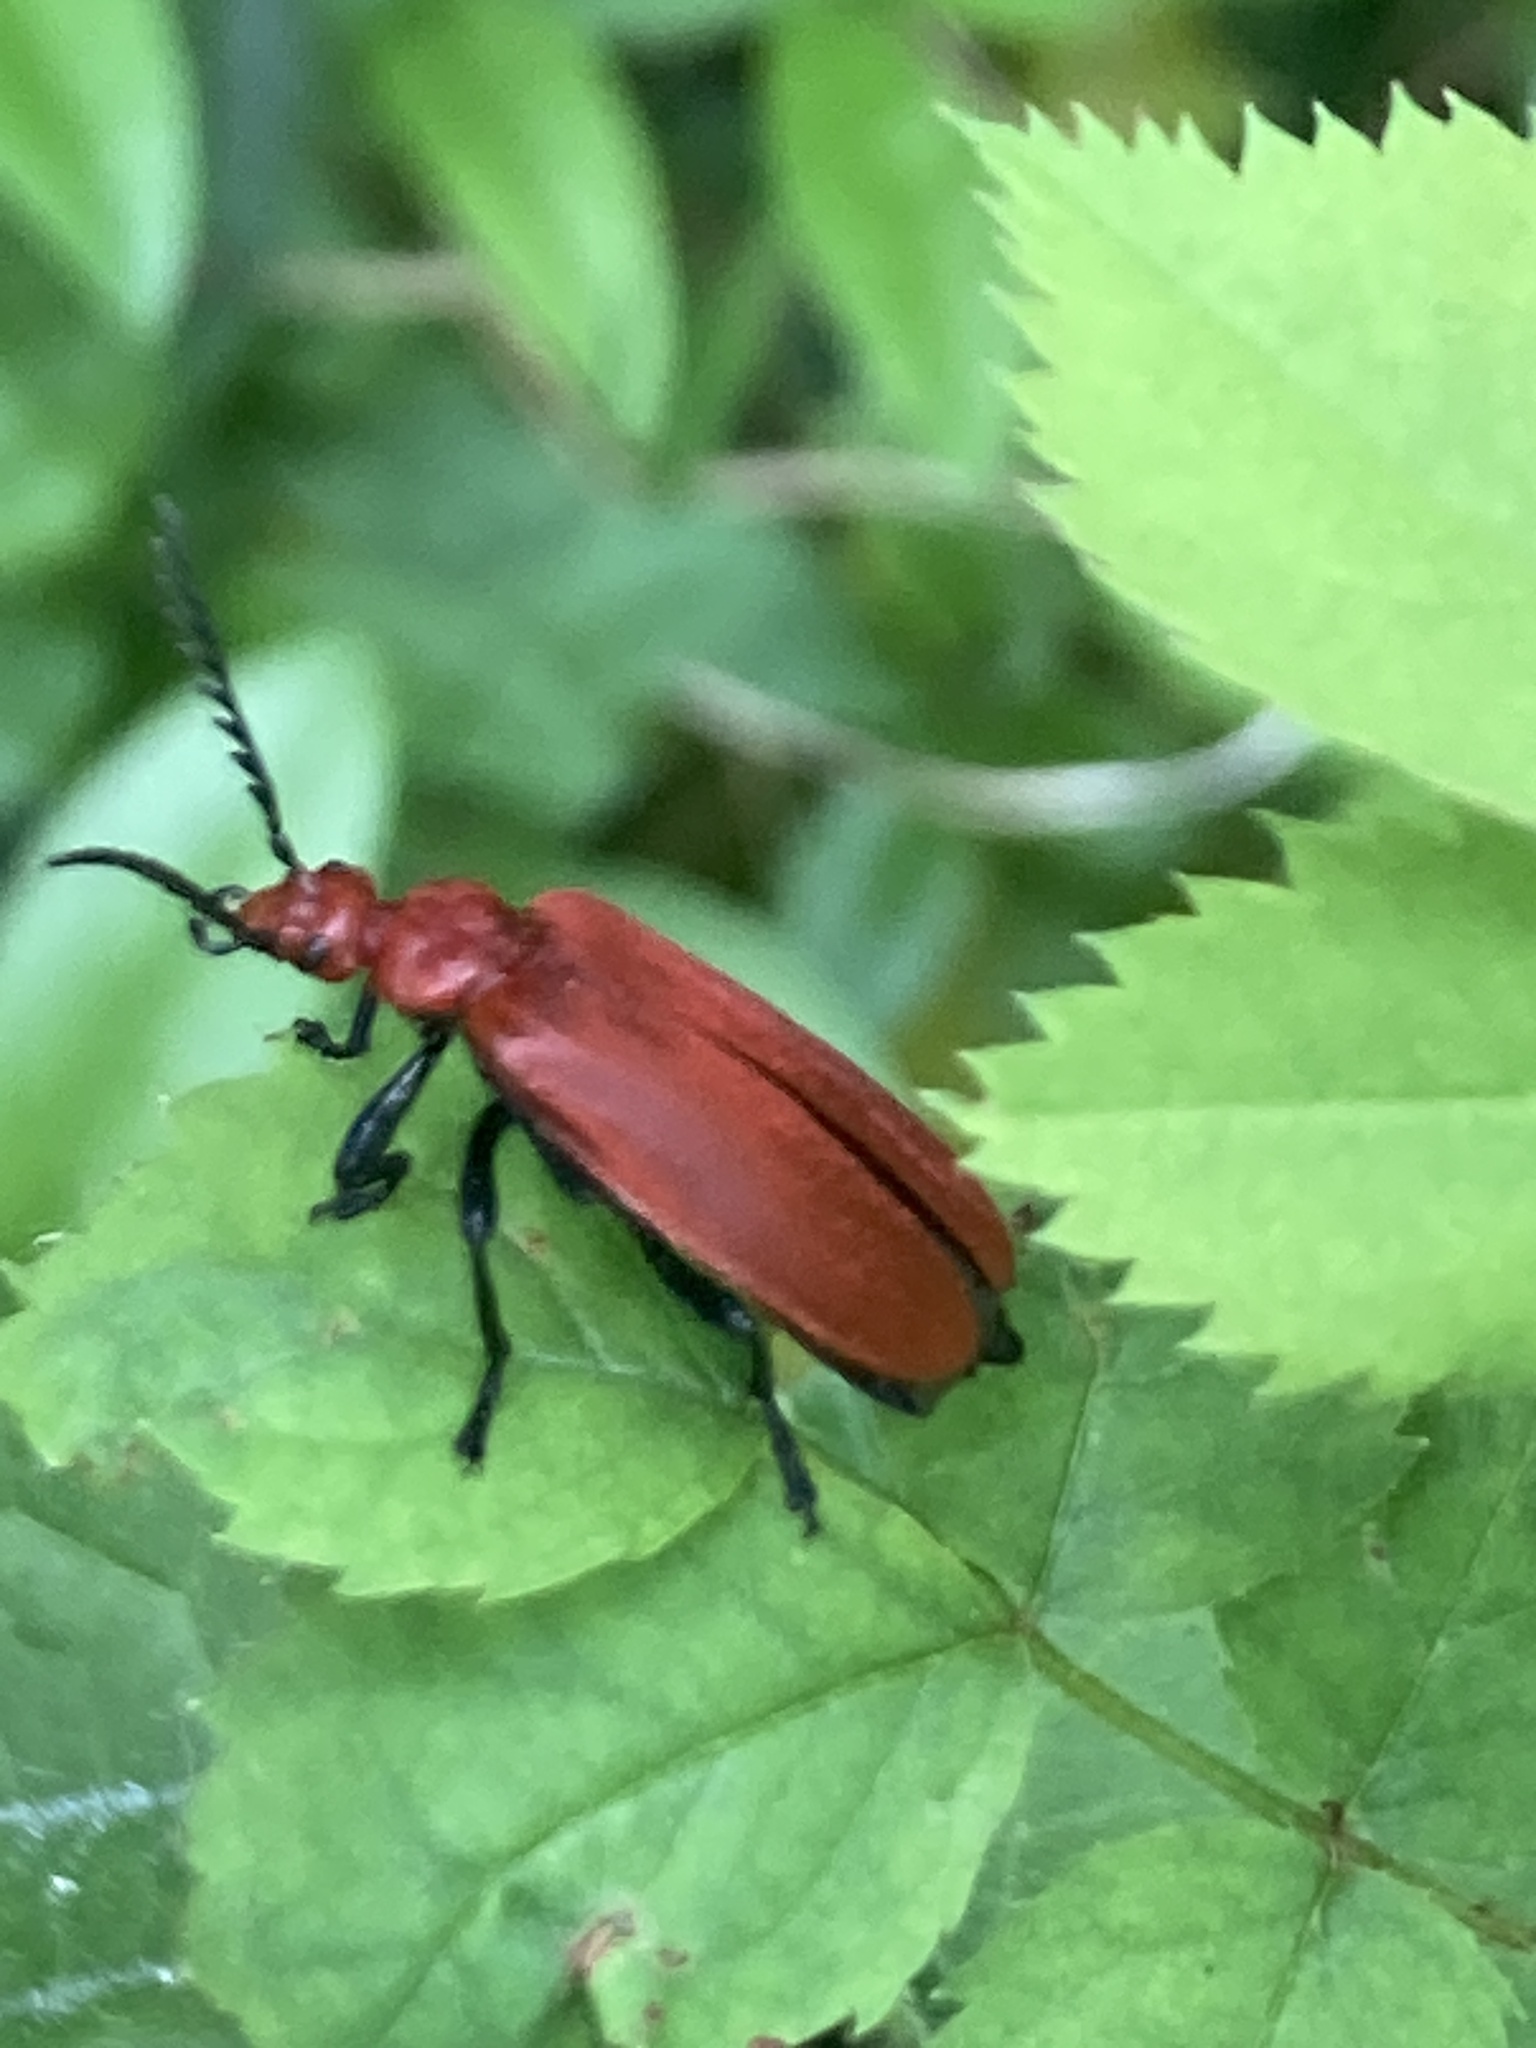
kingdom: Animalia
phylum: Arthropoda
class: Insecta
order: Coleoptera
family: Pyrochroidae
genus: Pyrochroa
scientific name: Pyrochroa serraticornis
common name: Red-headed cardinal beetle
